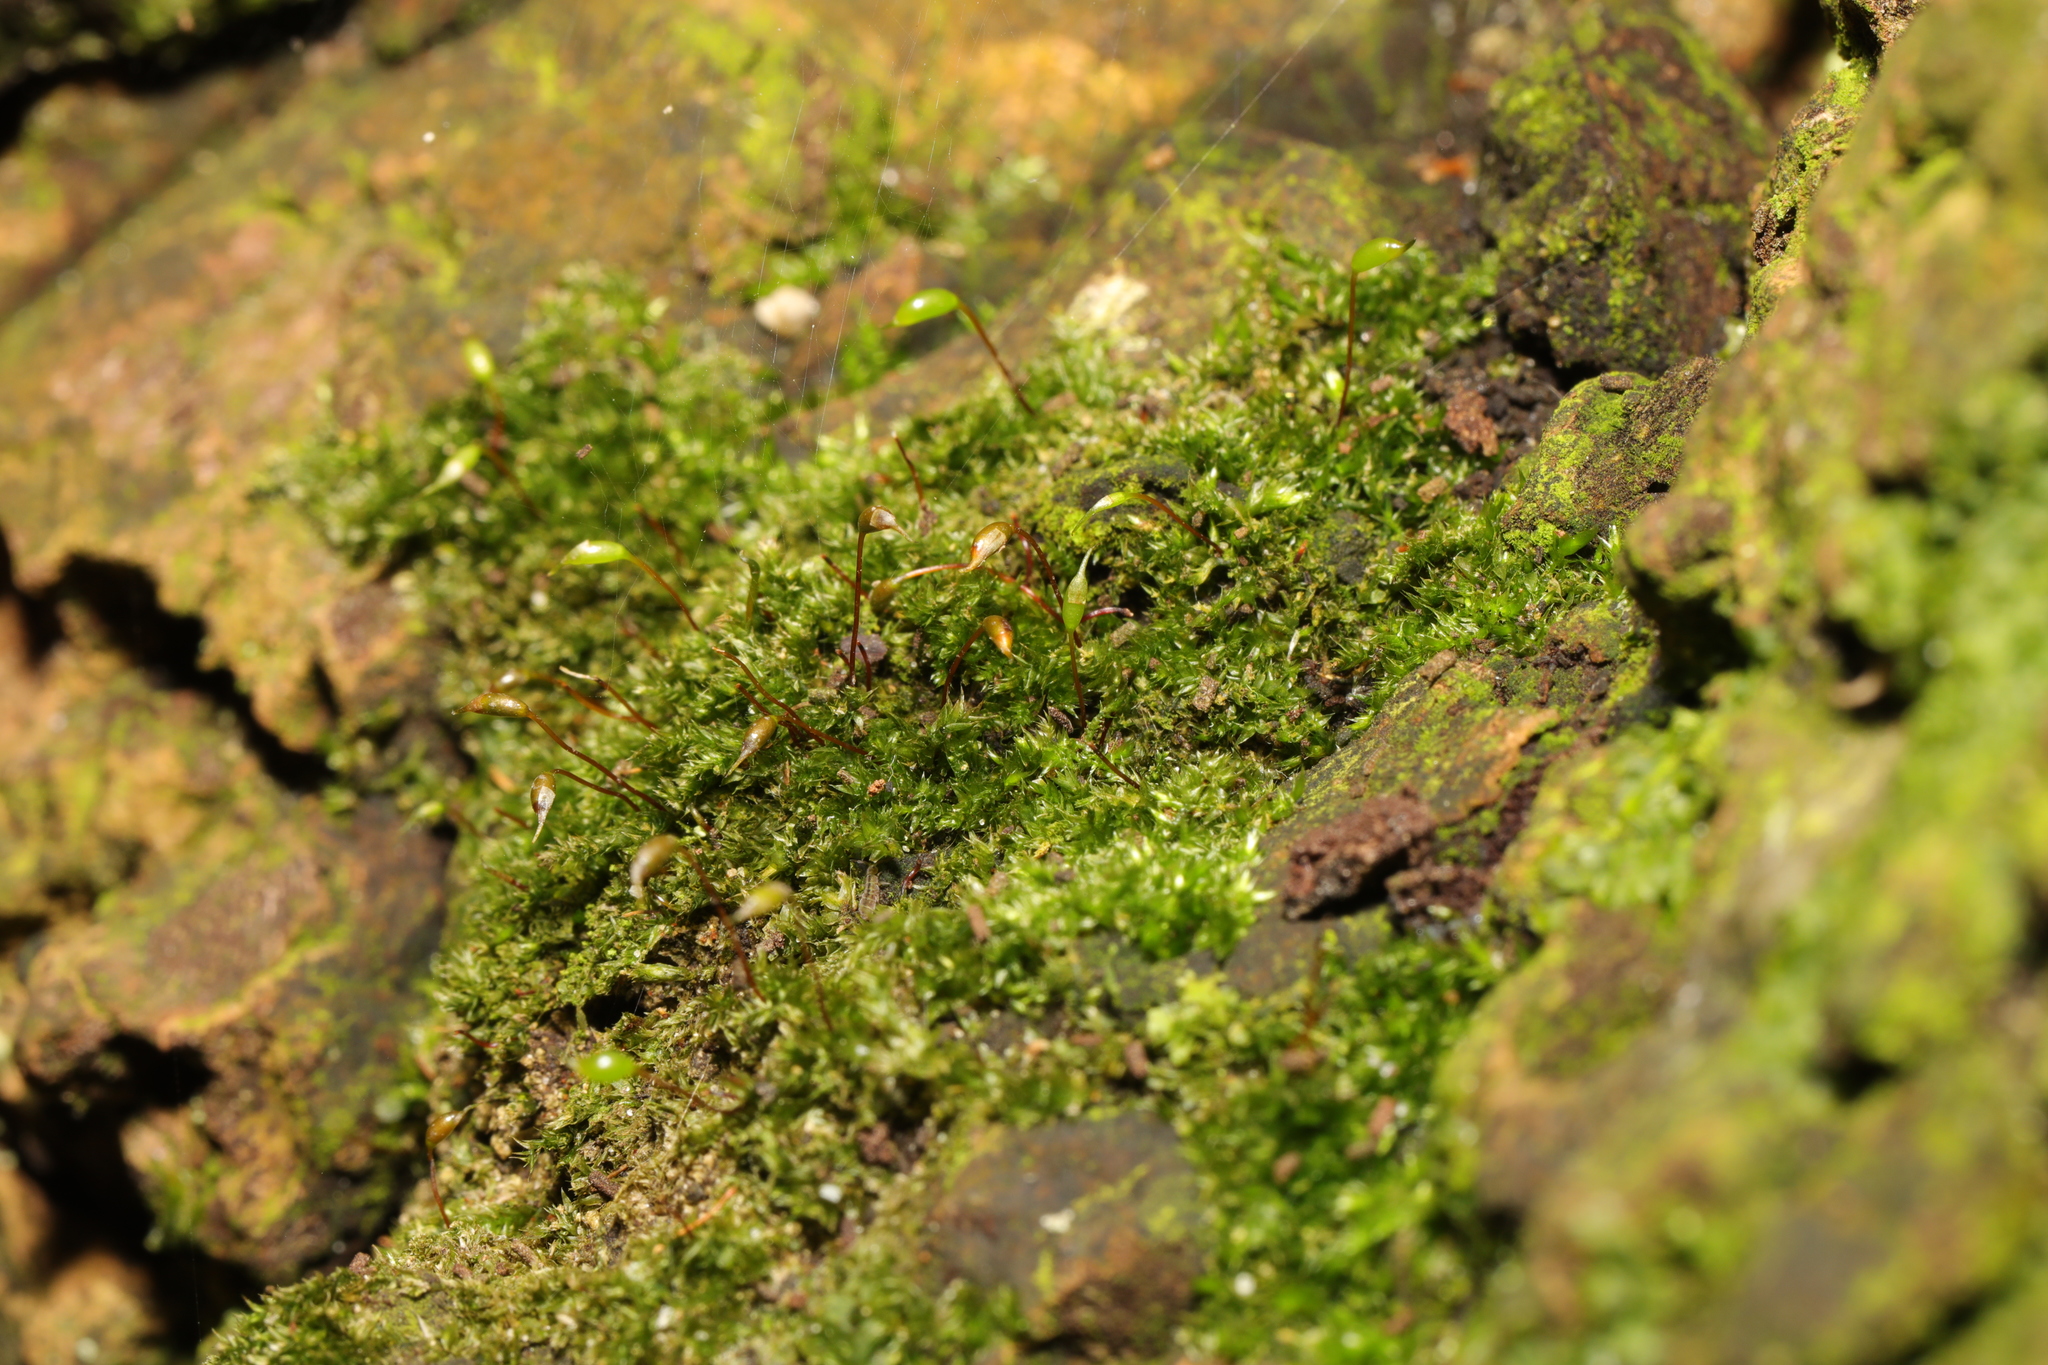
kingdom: Plantae
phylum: Bryophyta
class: Bryopsida
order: Hypnales
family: Brachytheciaceae
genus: Rhynchostegium
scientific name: Rhynchostegium confertum
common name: Clustered feather-moss
